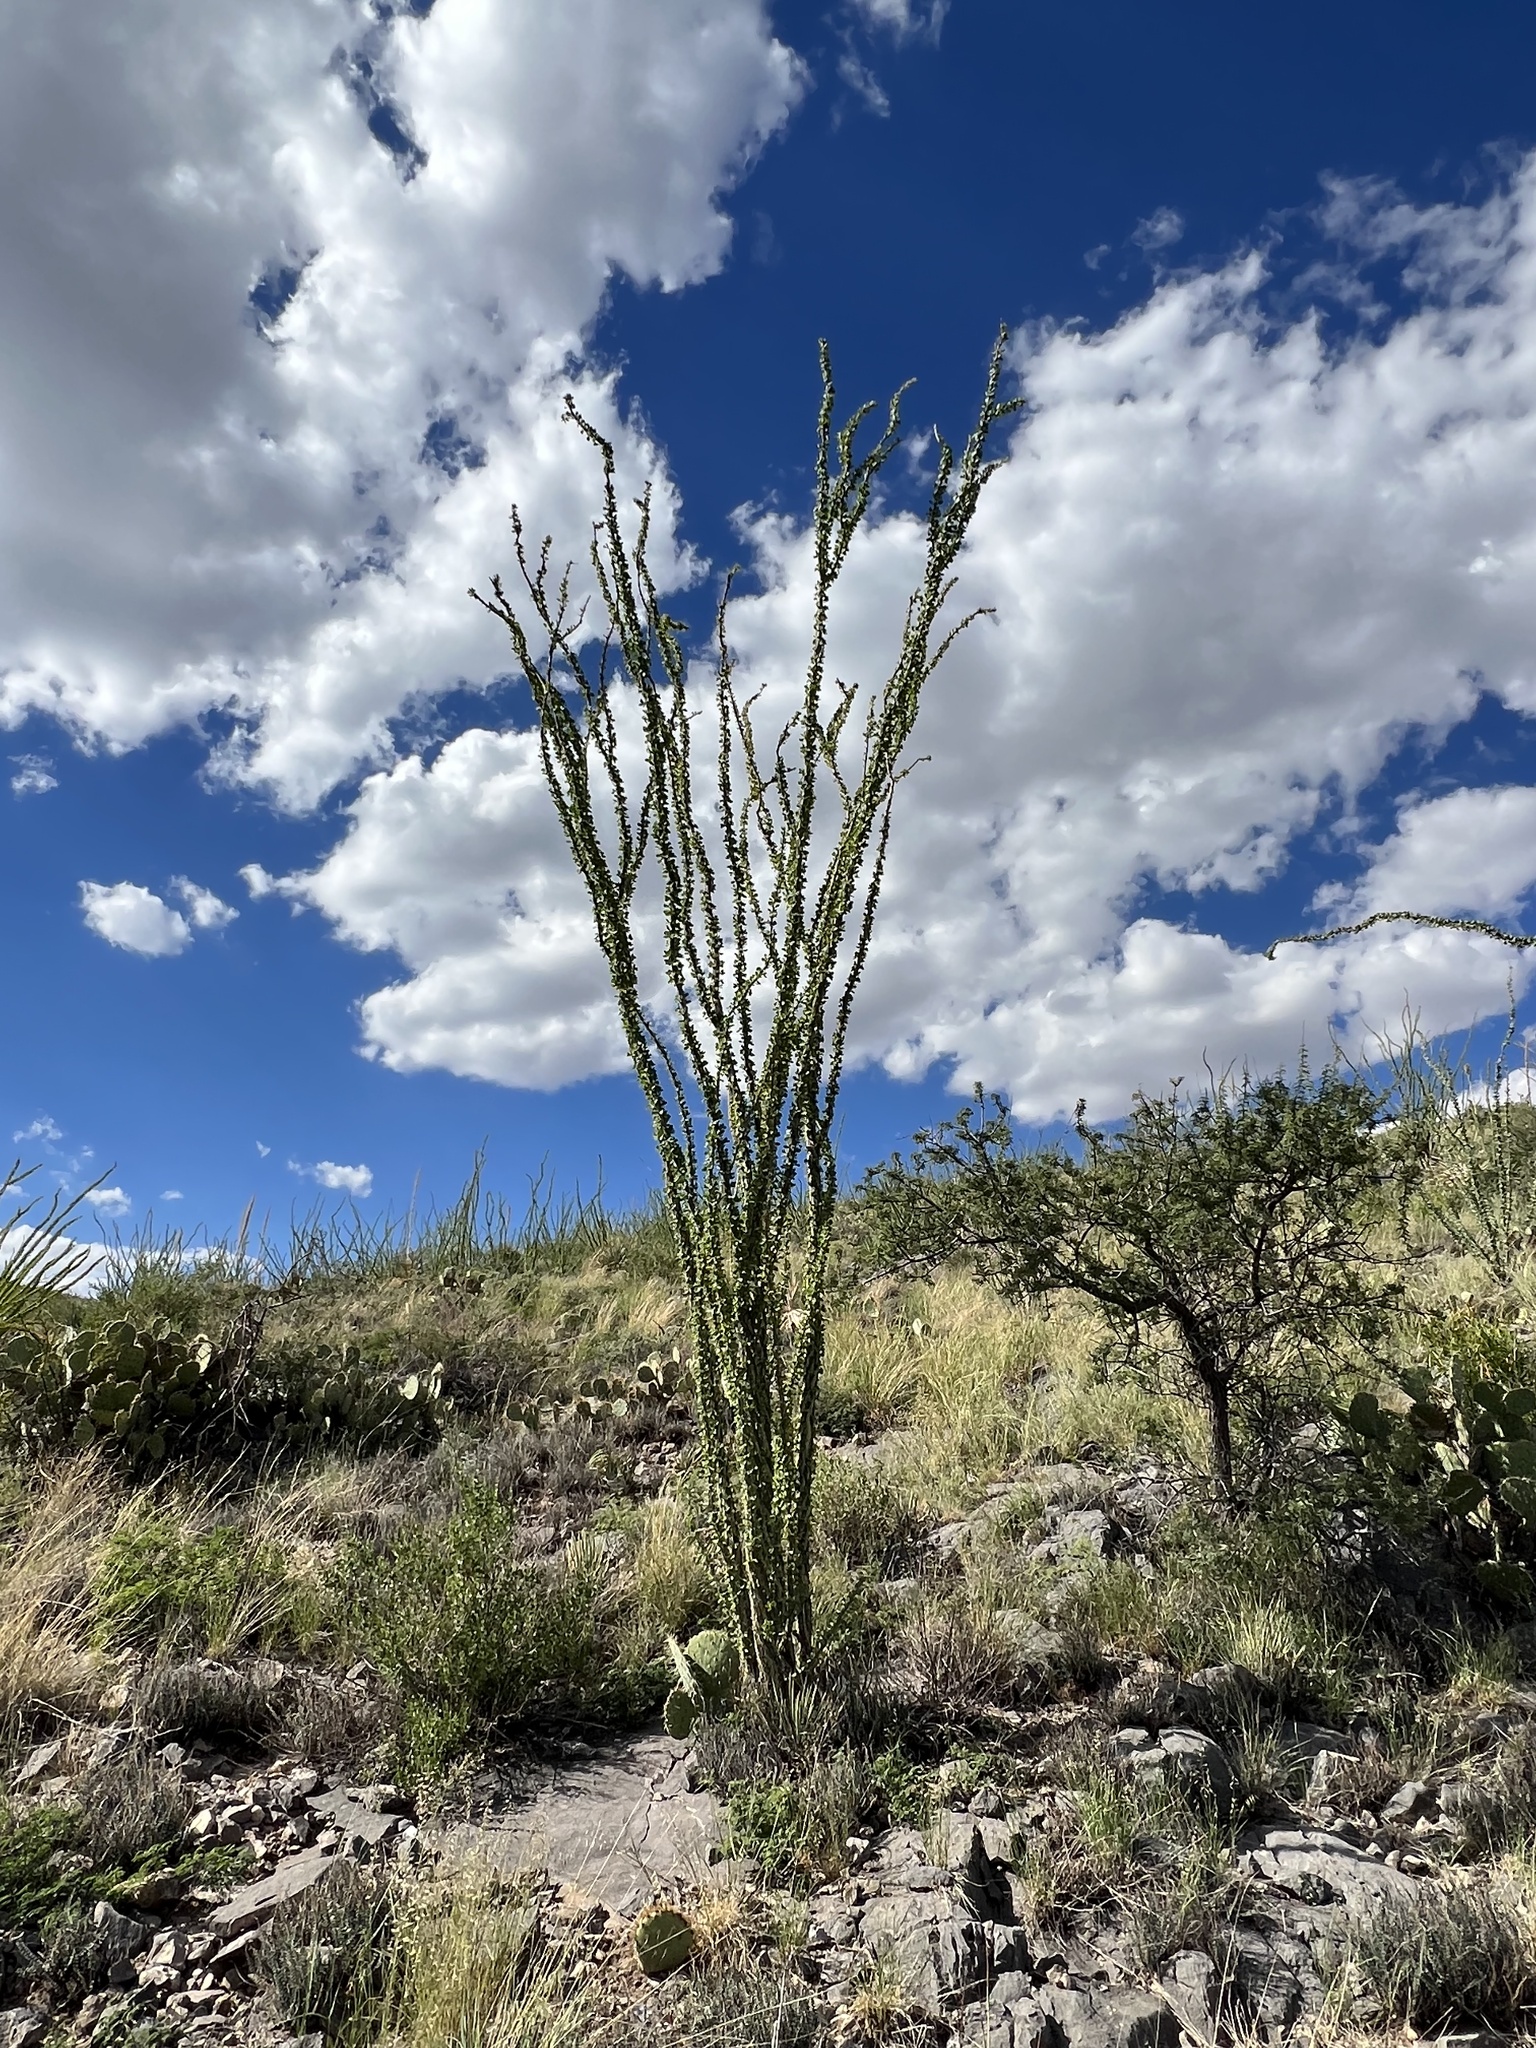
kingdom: Plantae
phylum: Tracheophyta
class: Magnoliopsida
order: Ericales
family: Fouquieriaceae
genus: Fouquieria
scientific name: Fouquieria splendens
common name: Vine-cactus
